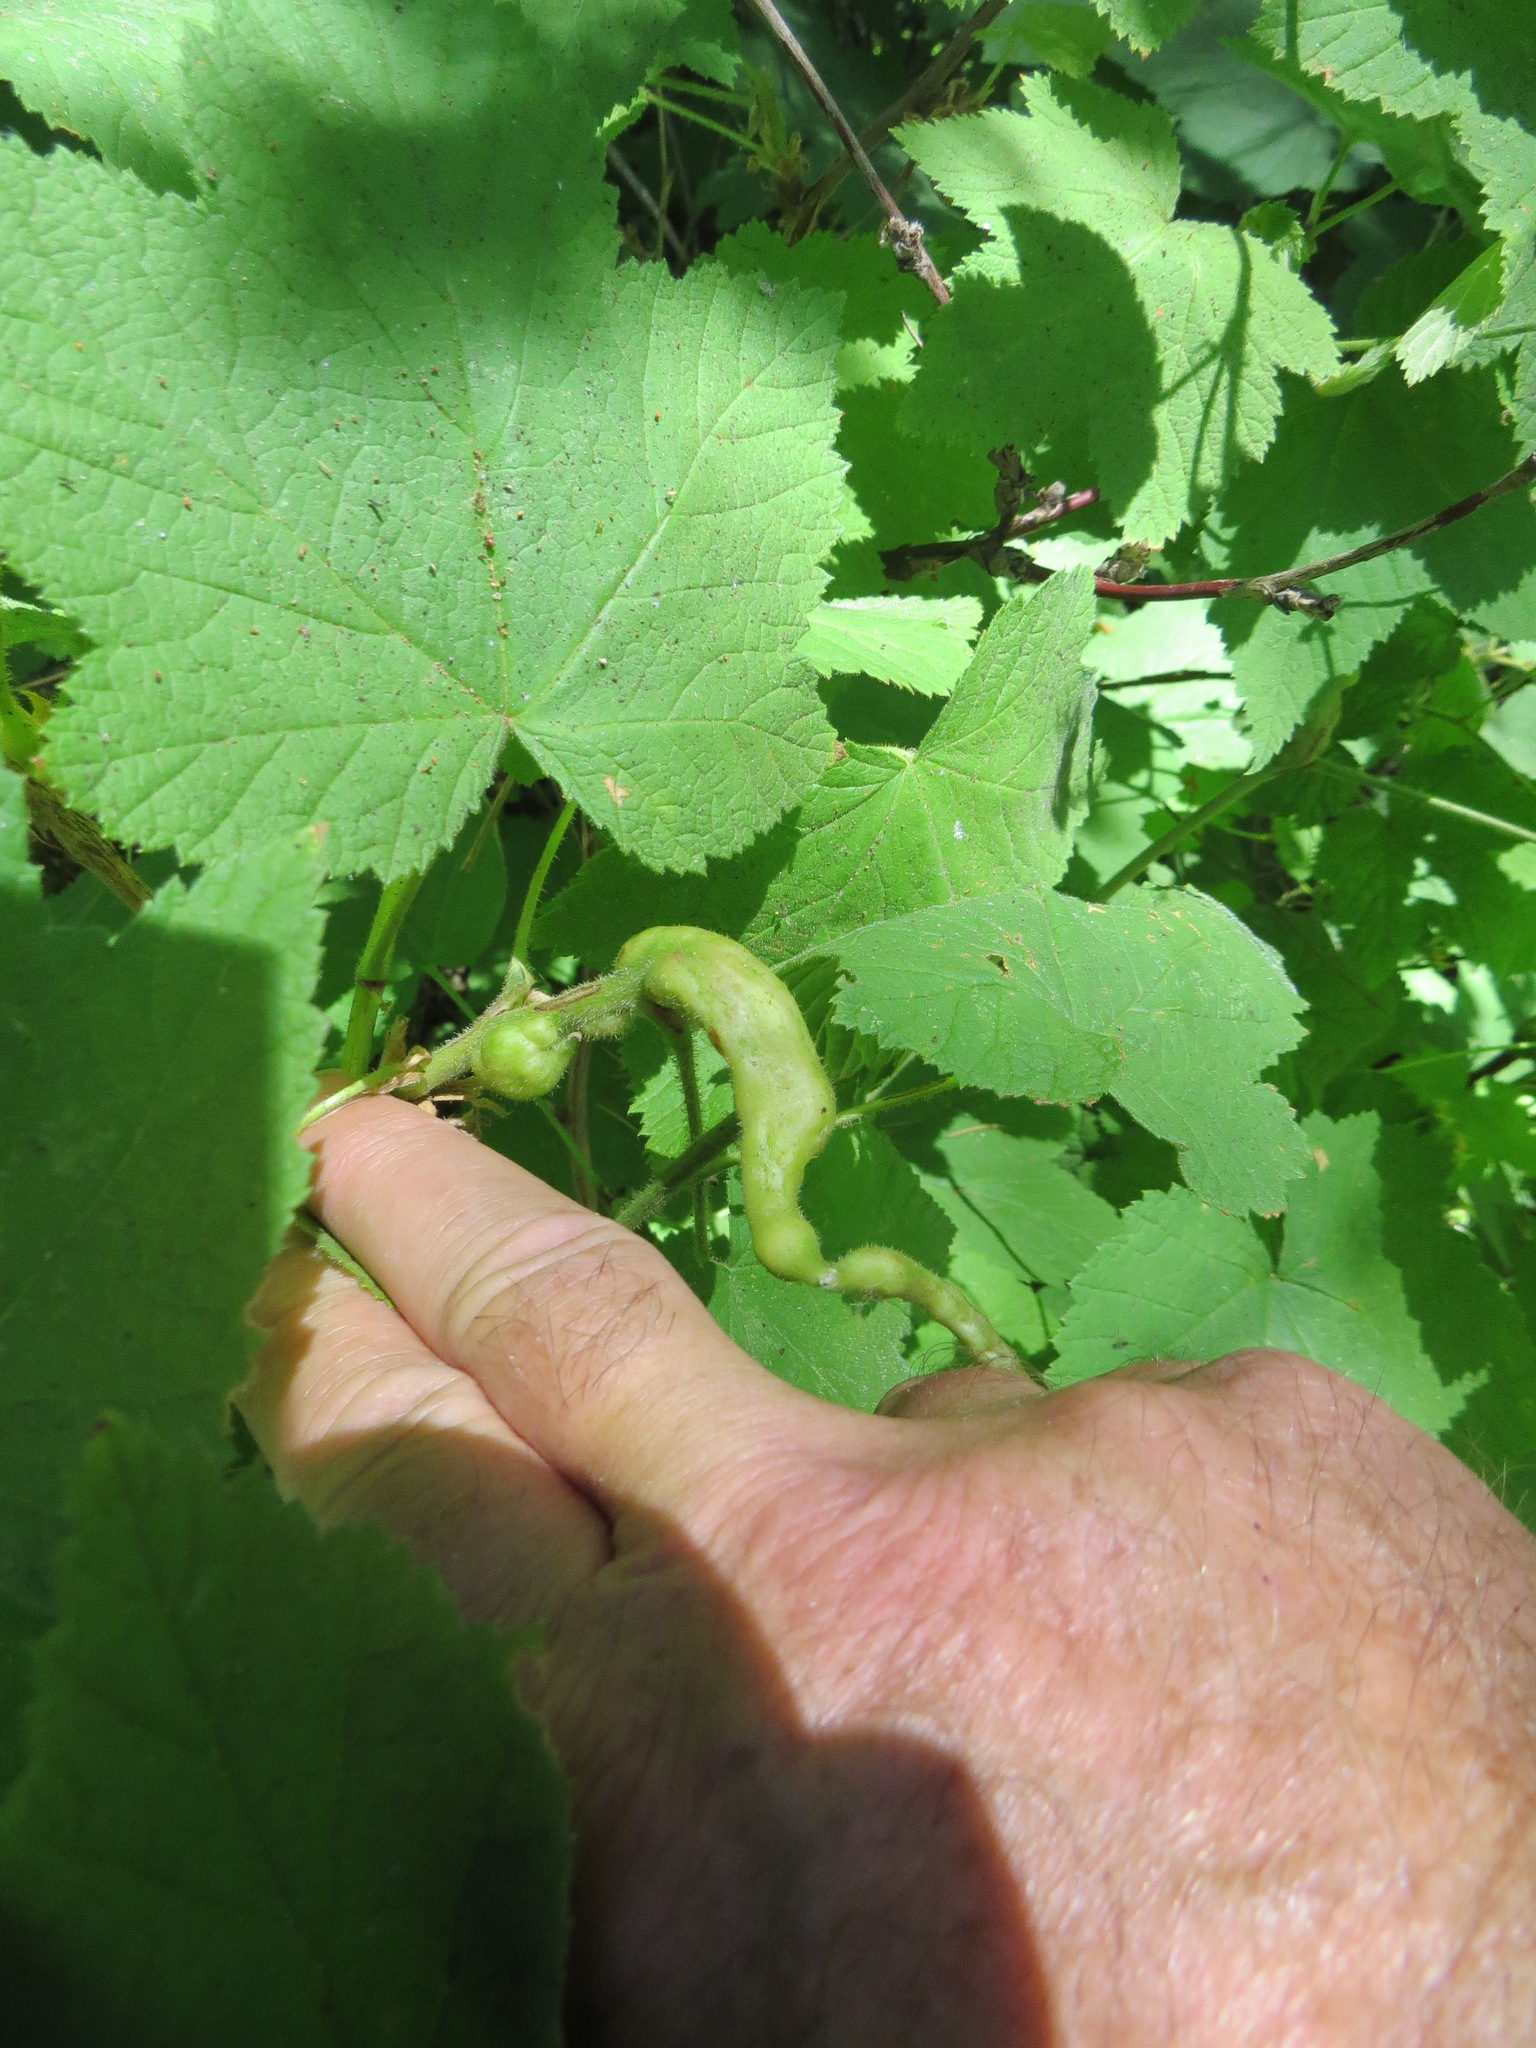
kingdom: Animalia
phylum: Arthropoda
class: Insecta
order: Hymenoptera
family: Cynipidae
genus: Diastrophus
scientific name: Diastrophus
